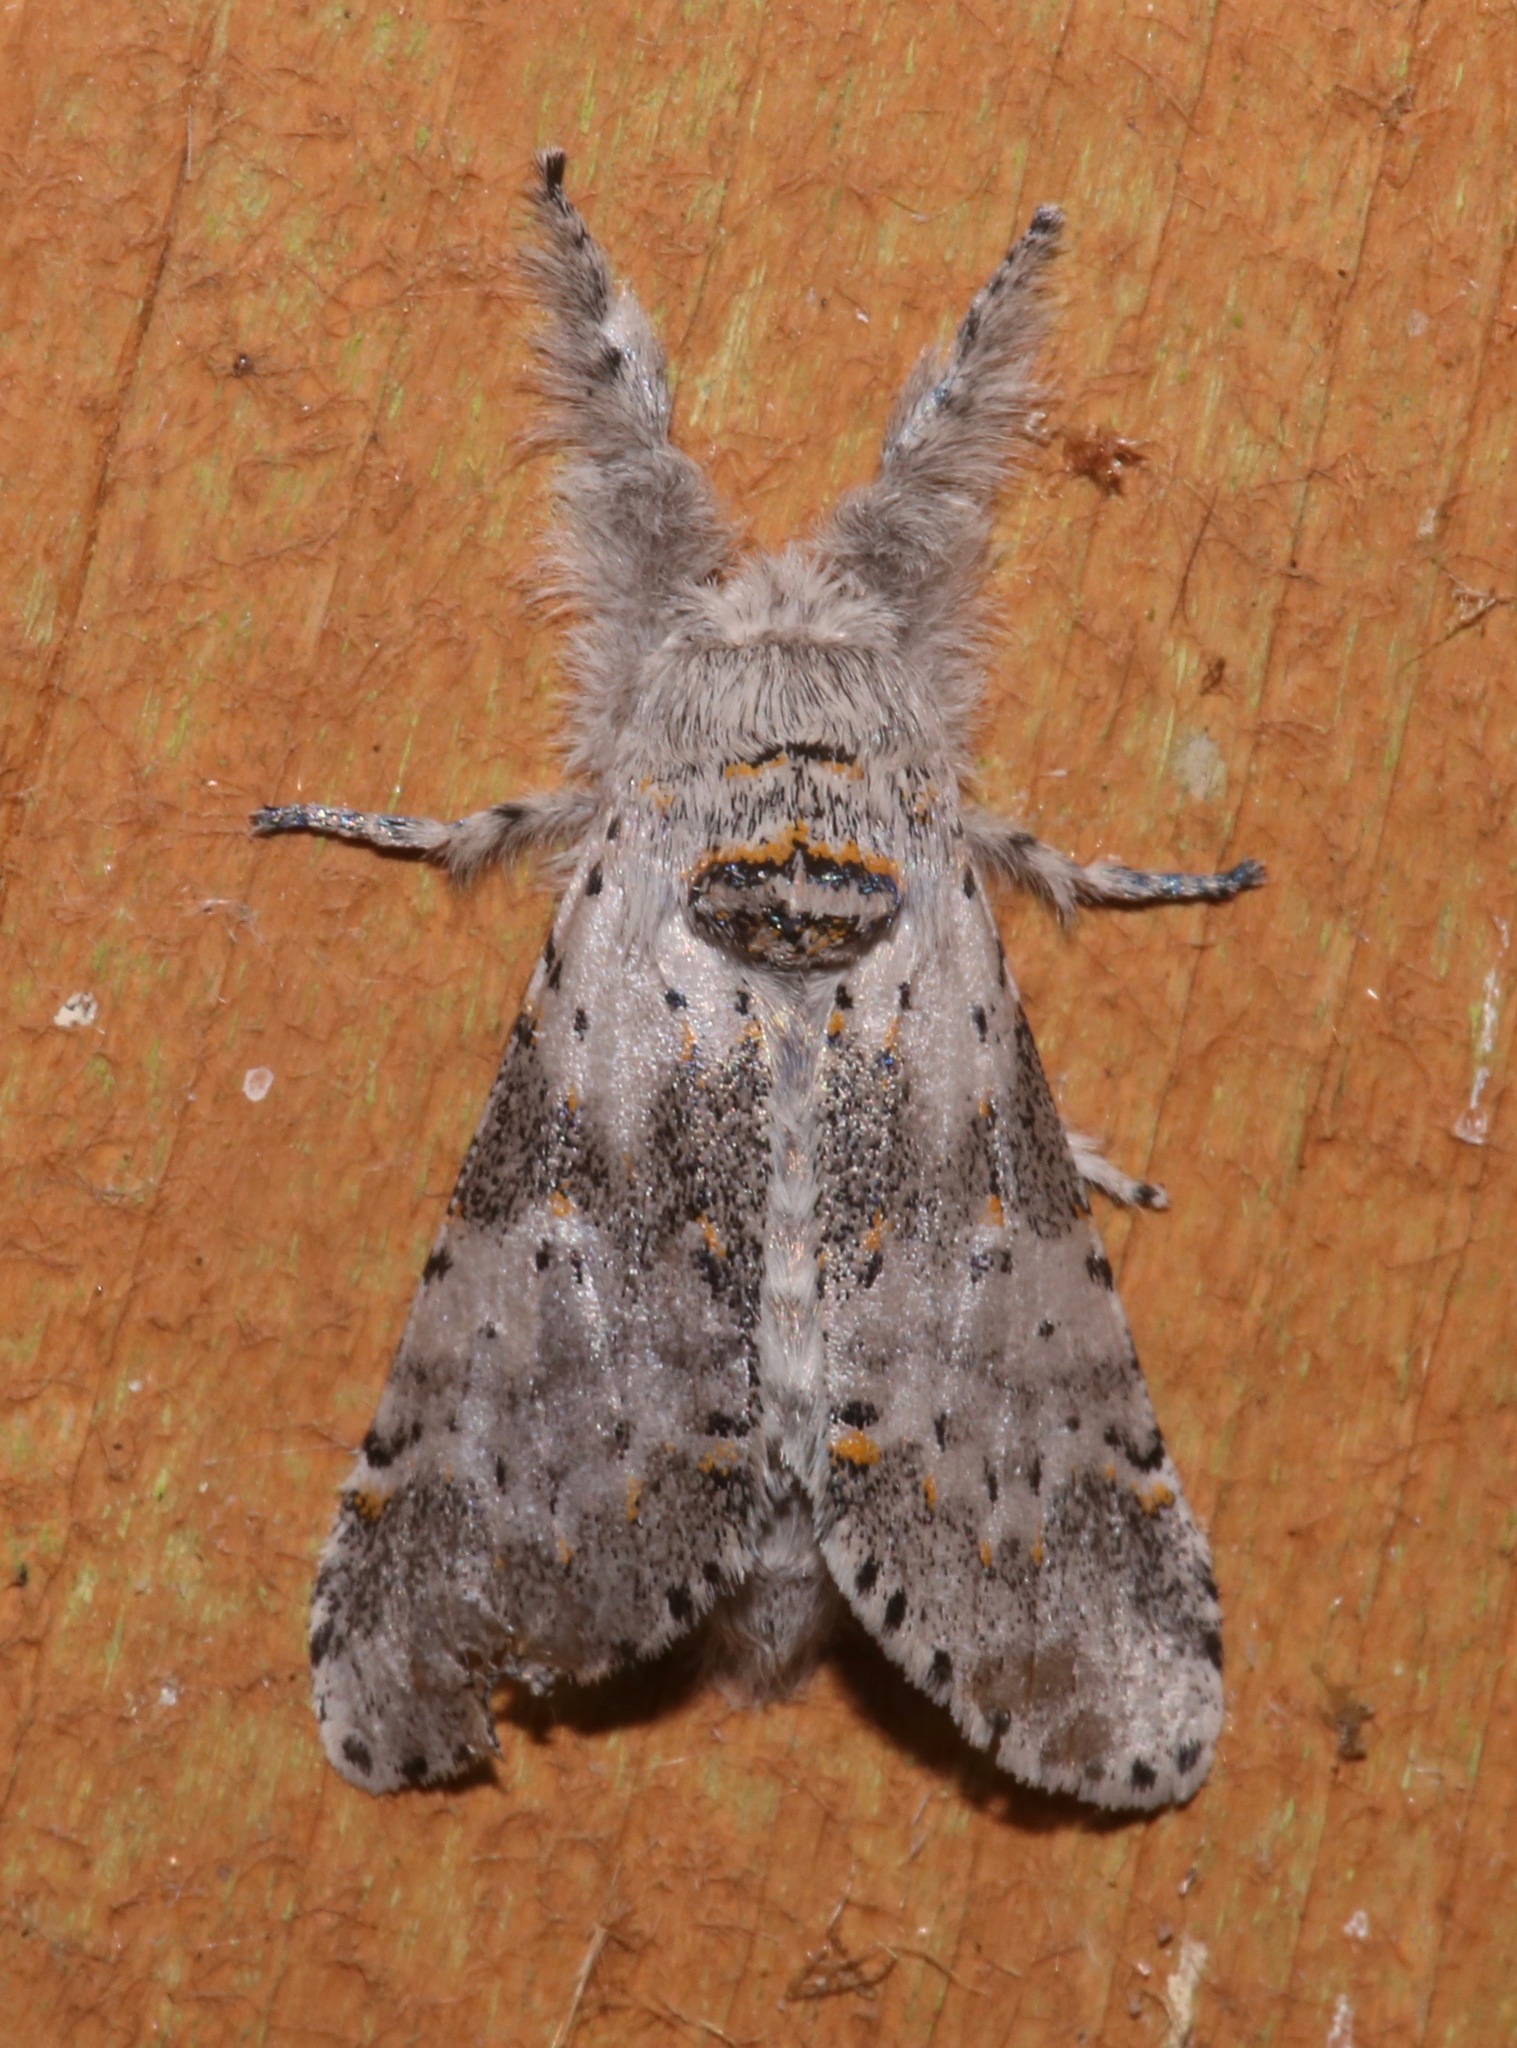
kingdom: Animalia
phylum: Arthropoda
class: Insecta
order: Lepidoptera
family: Notodontidae
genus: Furcula
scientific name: Furcula cinerea
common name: Gray furcula
